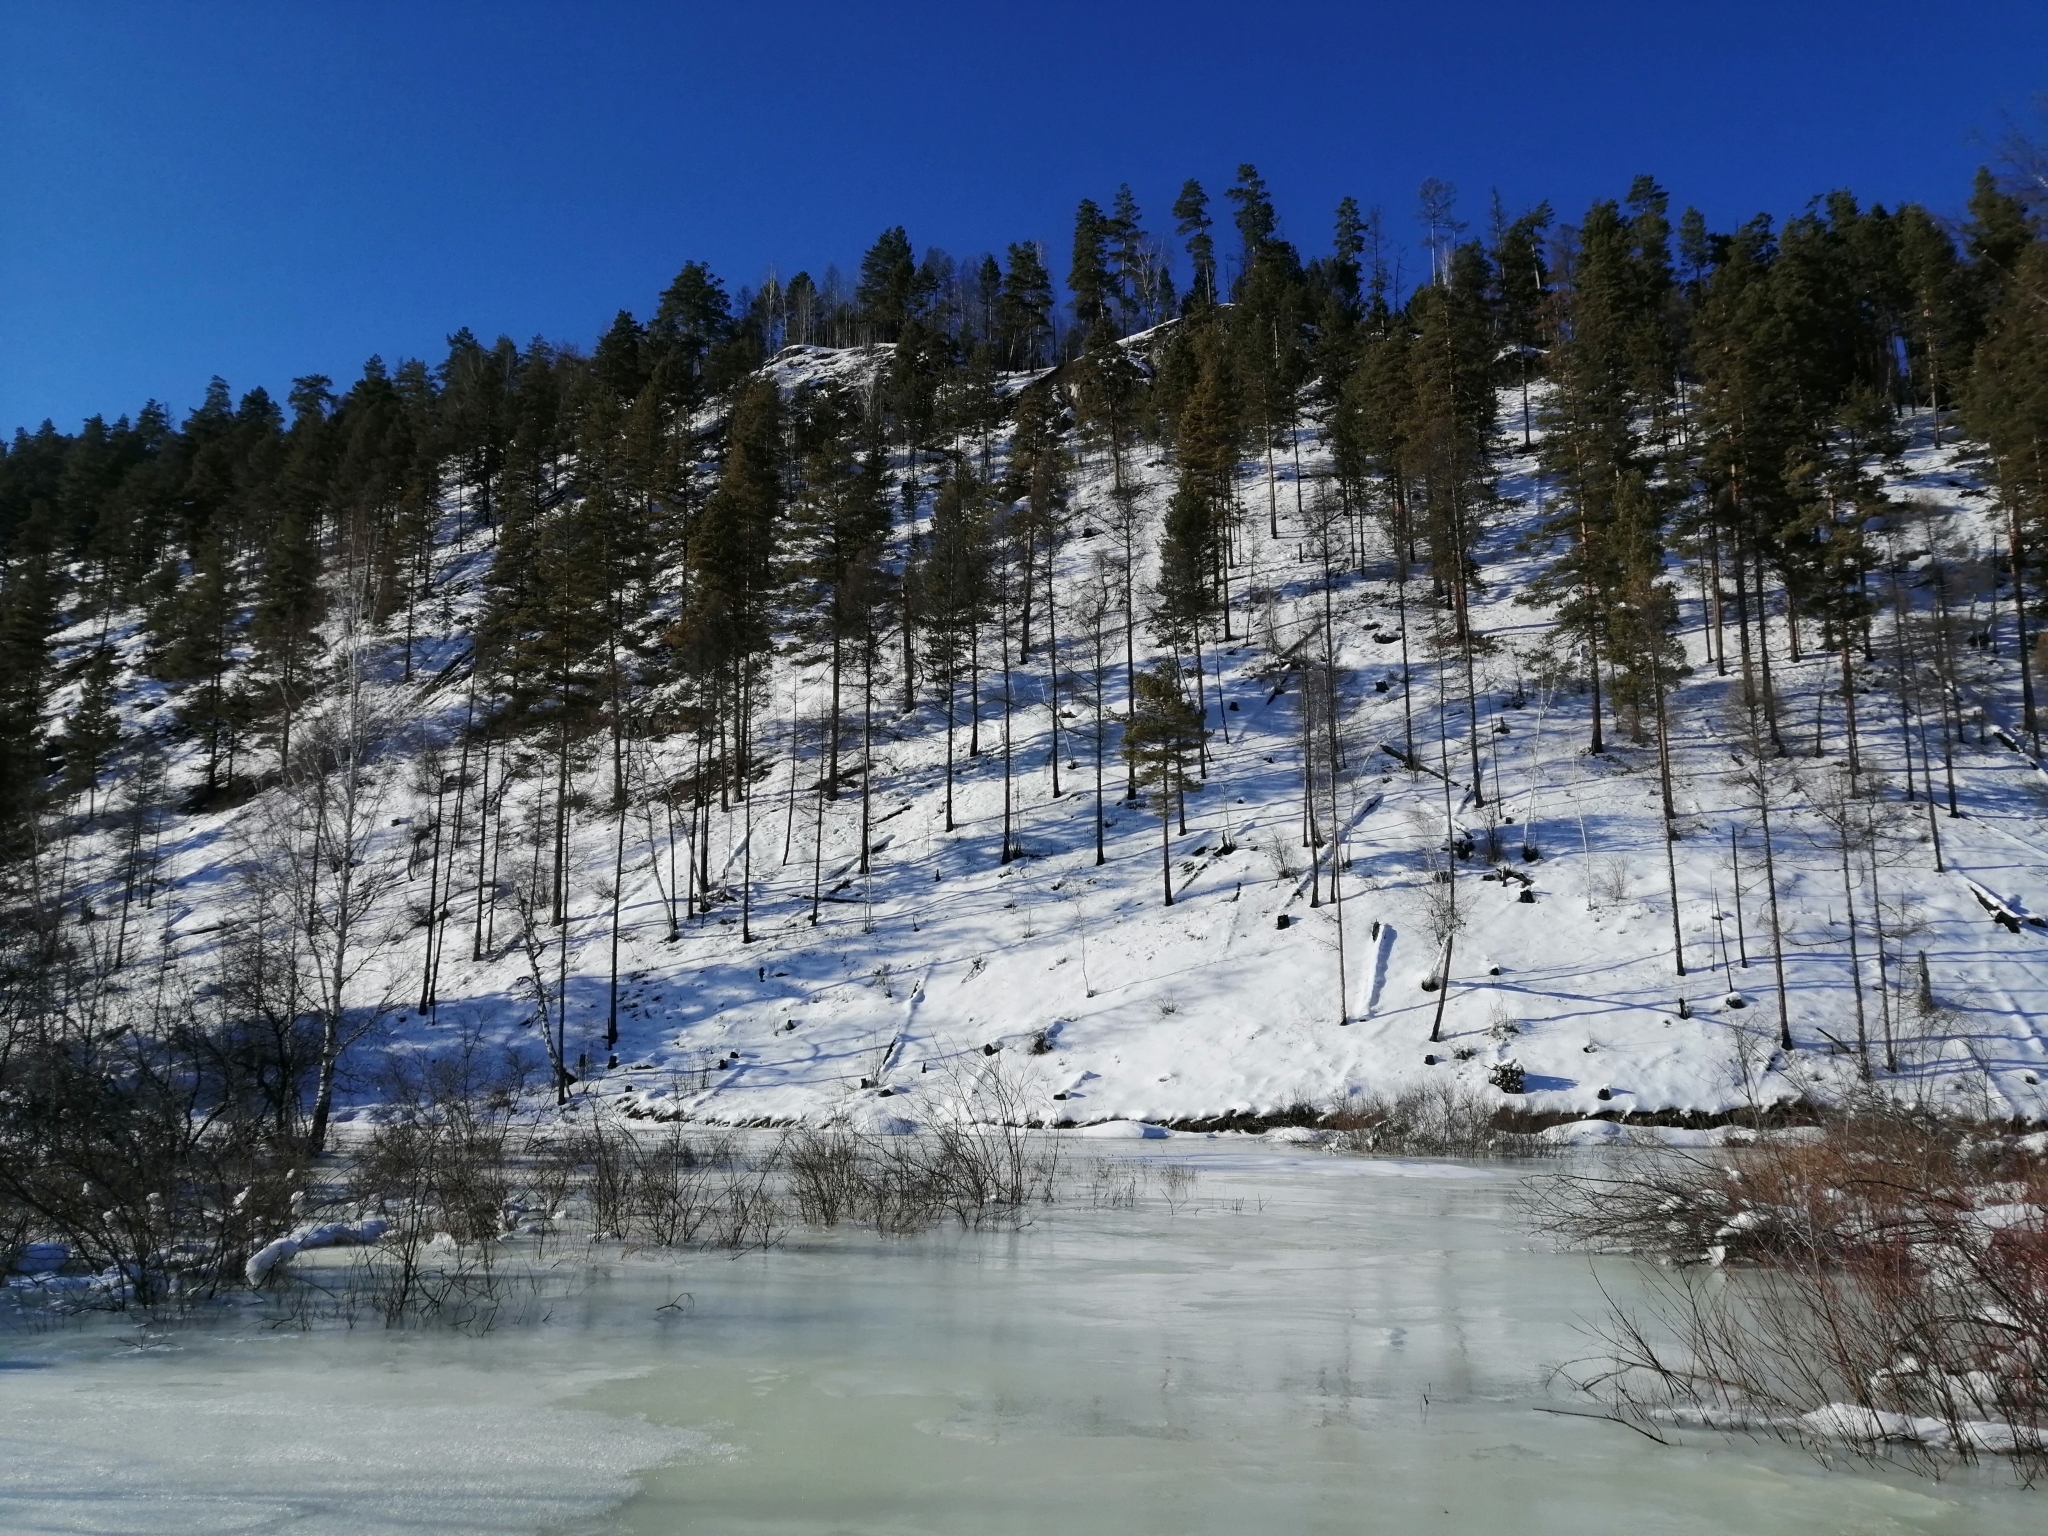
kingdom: Plantae
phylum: Tracheophyta
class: Pinopsida
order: Pinales
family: Pinaceae
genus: Pinus
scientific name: Pinus sylvestris
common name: Scots pine
